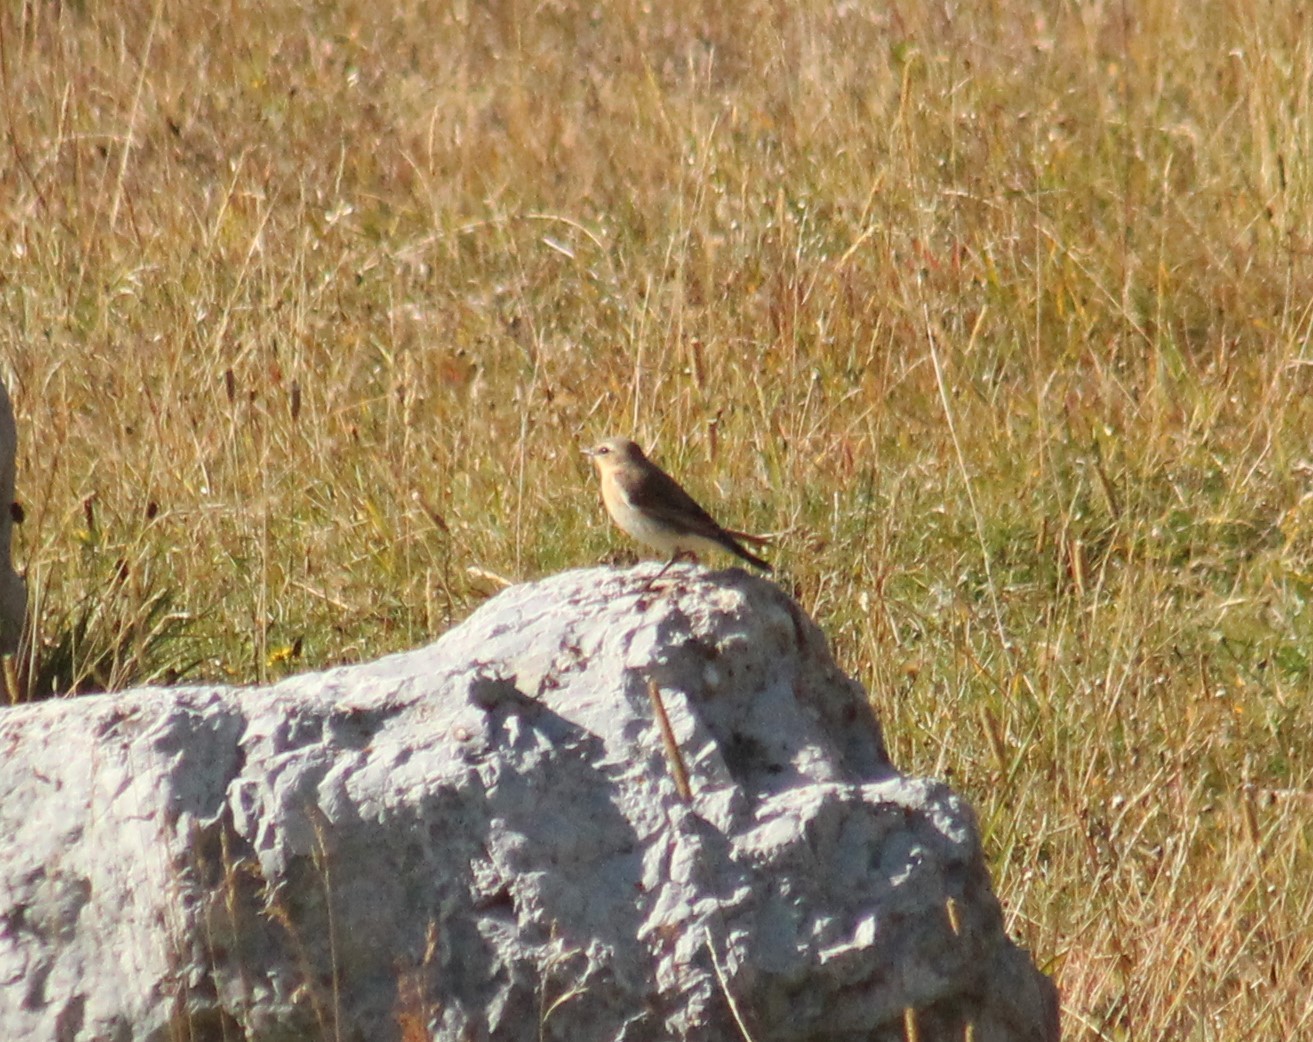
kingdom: Animalia
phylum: Chordata
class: Aves
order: Passeriformes
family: Muscicapidae
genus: Oenanthe
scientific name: Oenanthe oenanthe
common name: Northern wheatear
